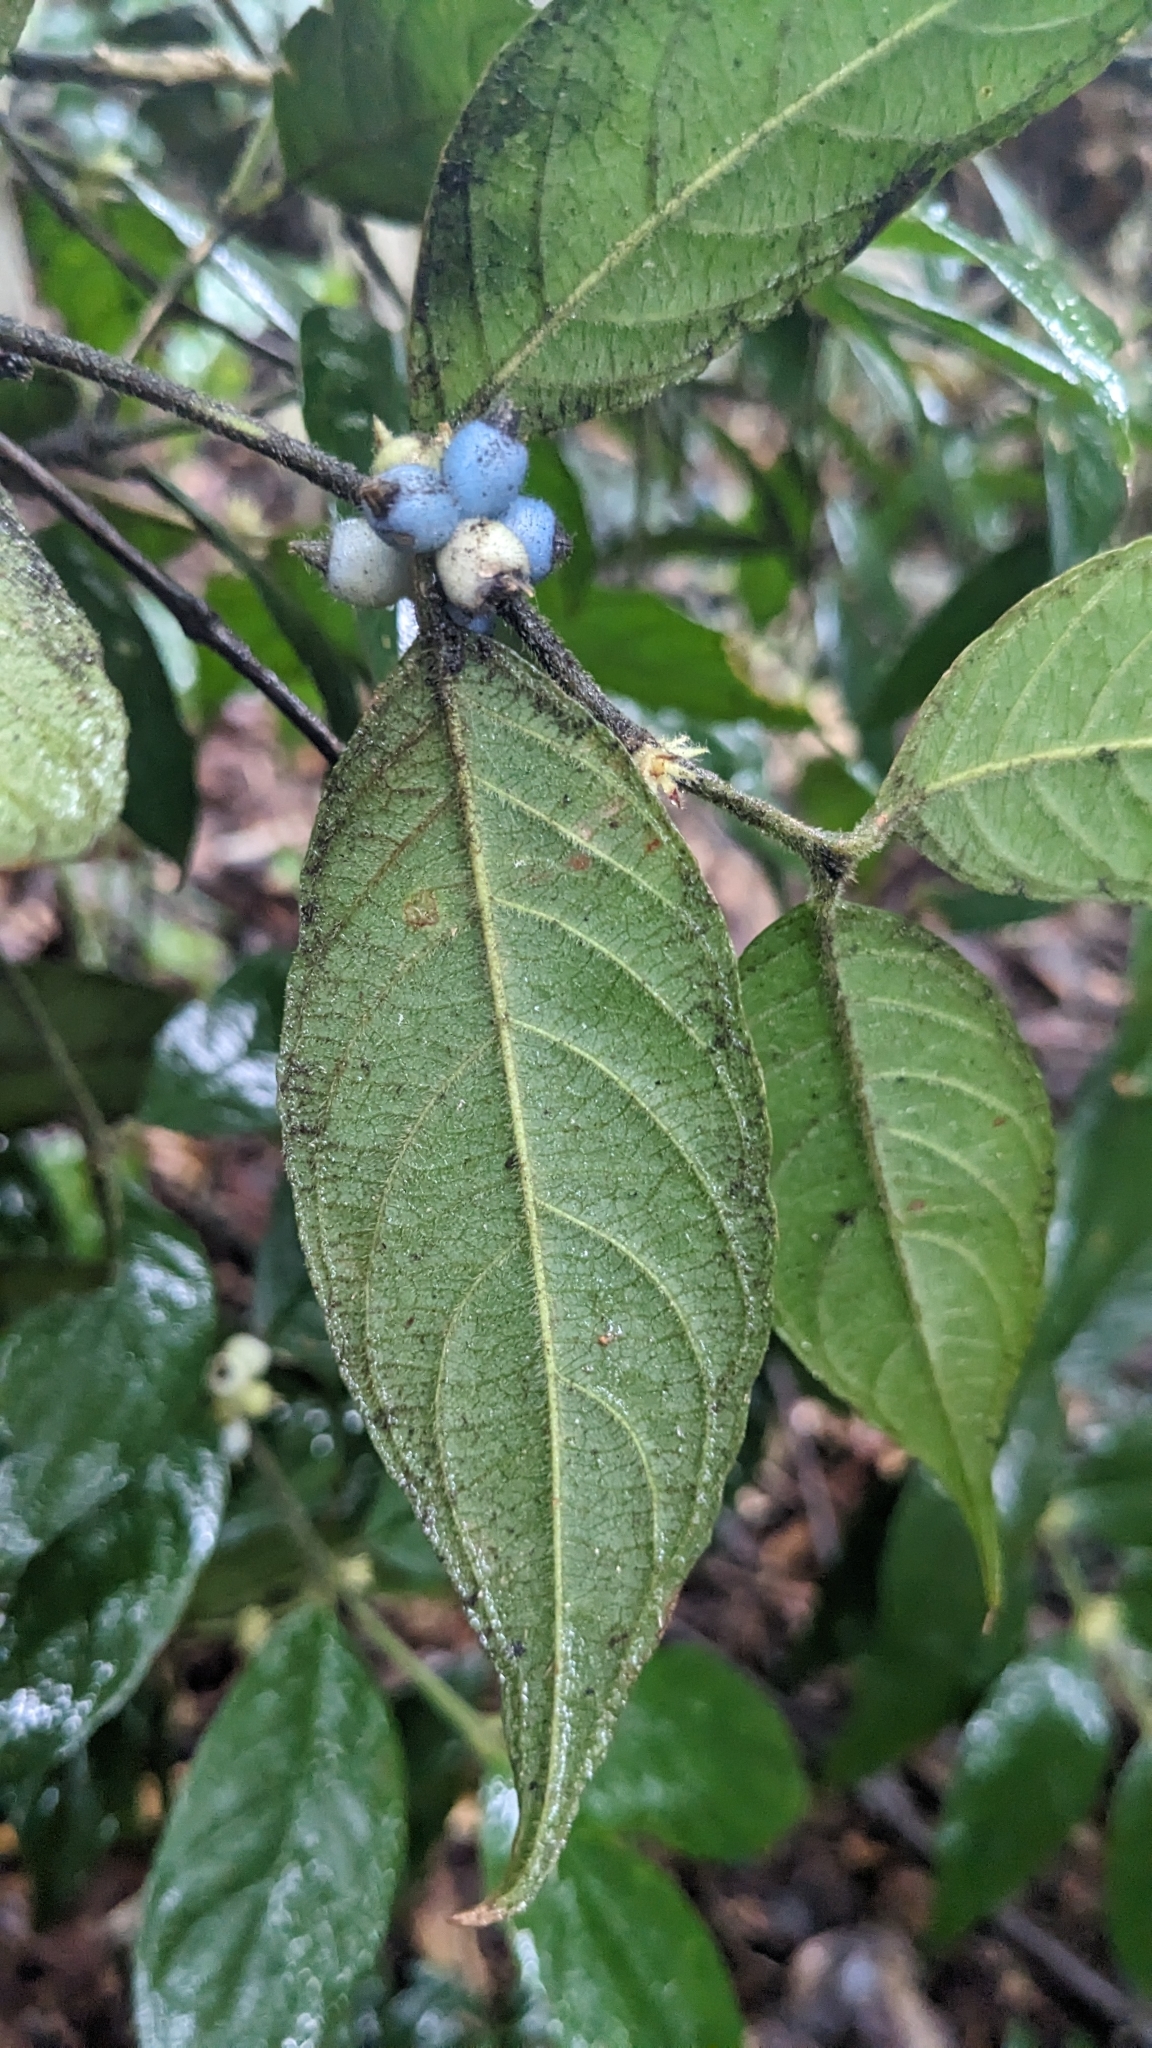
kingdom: Plantae
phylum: Tracheophyta
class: Magnoliopsida
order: Gentianales
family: Rubiaceae
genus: Lasianthus
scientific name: Lasianthus curtisii
